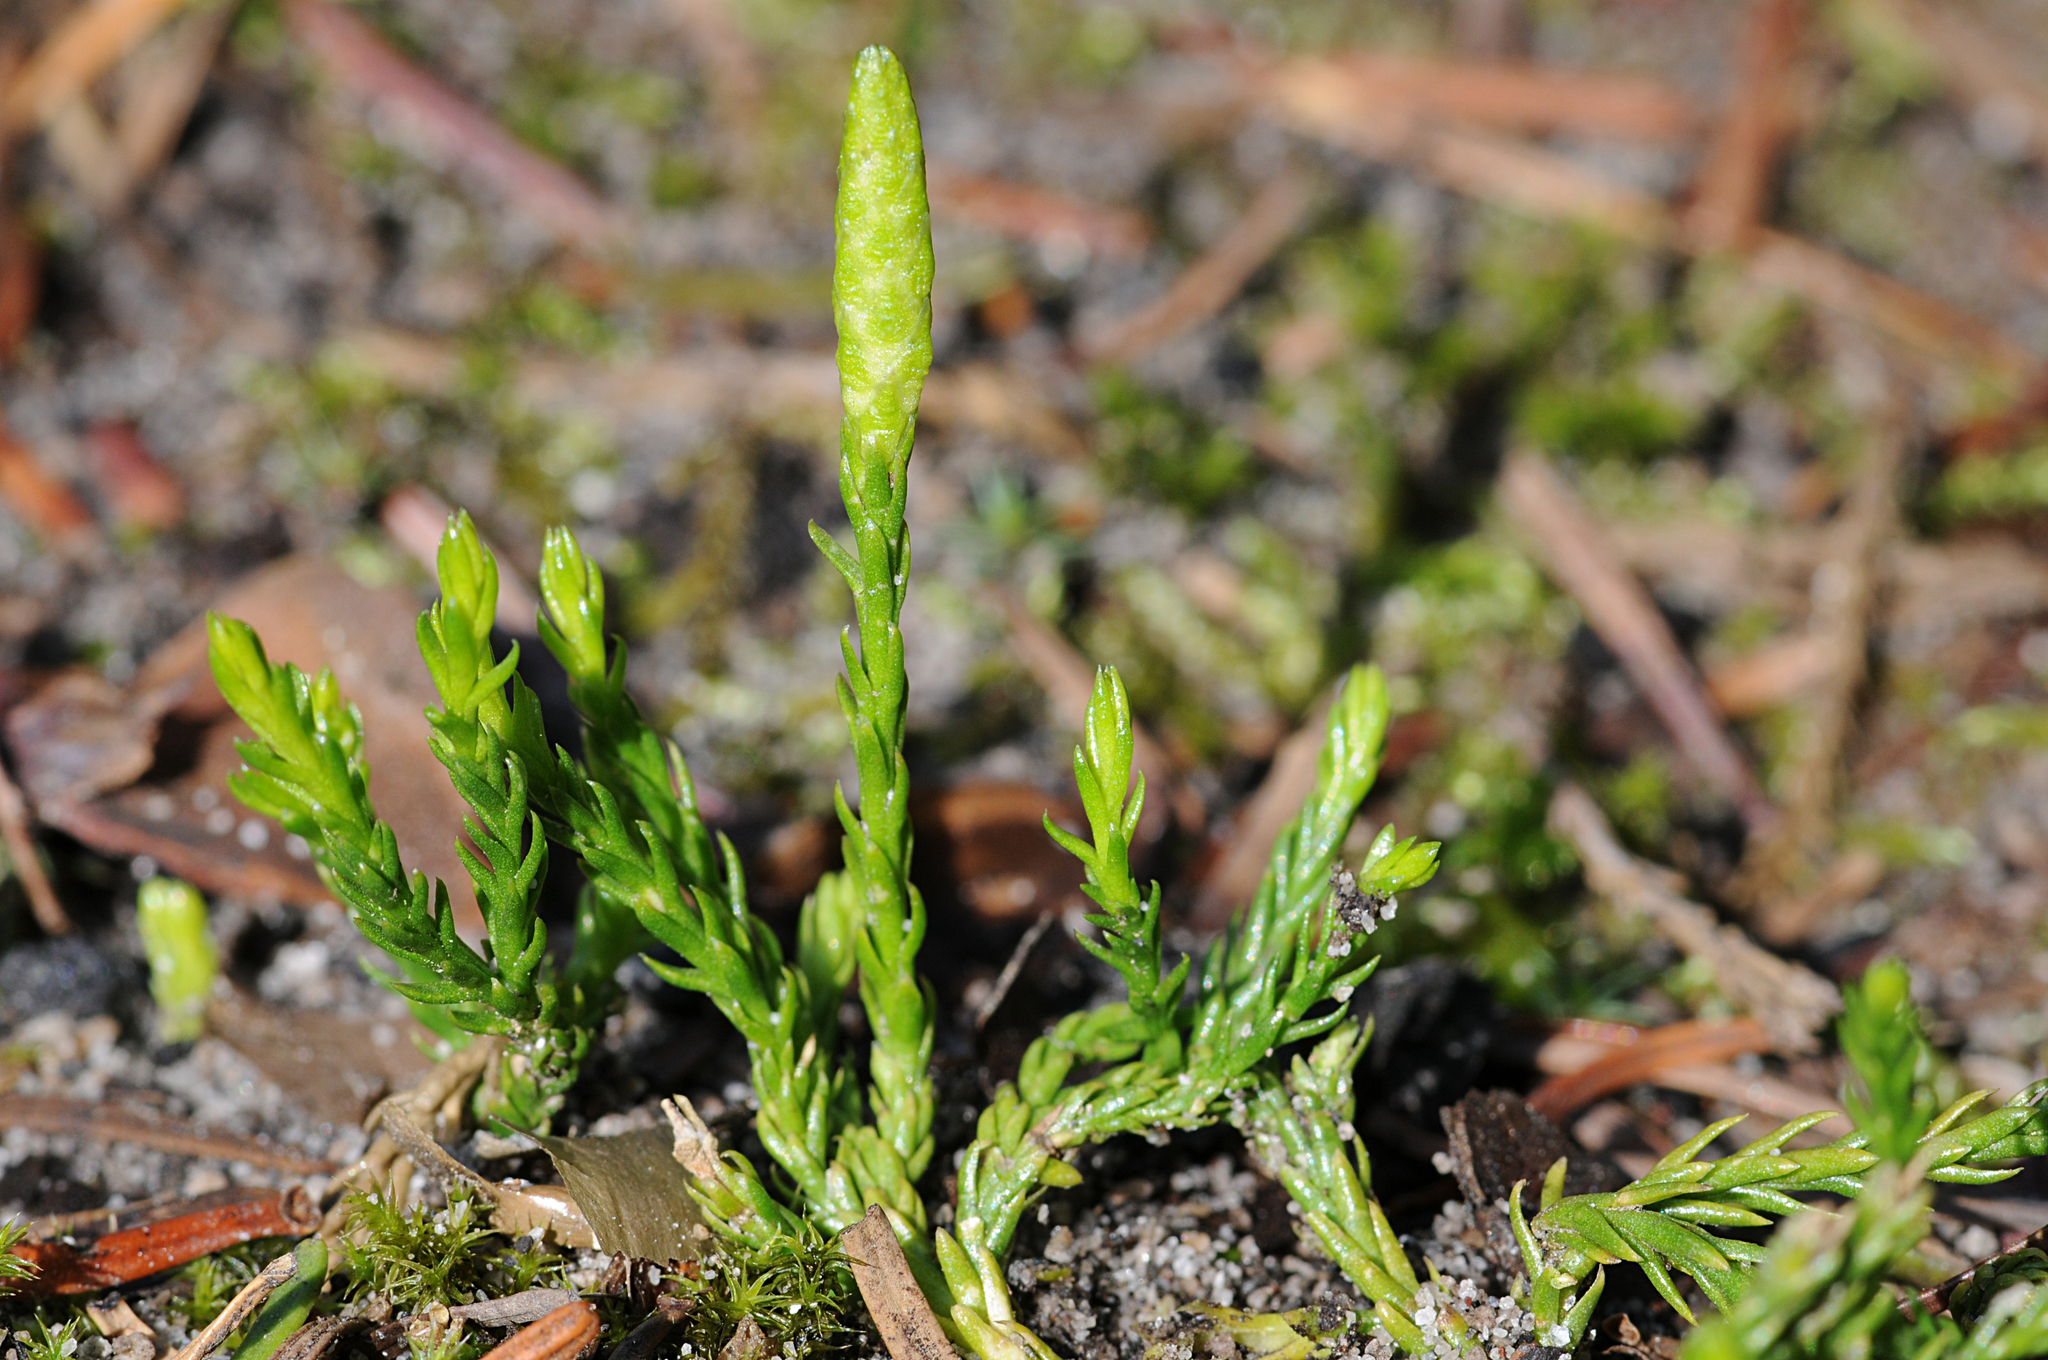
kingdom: Plantae
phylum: Tracheophyta
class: Lycopodiopsida
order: Lycopodiales
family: Lycopodiaceae
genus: Diphasiastrum
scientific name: Diphasiastrum sitchense
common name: Alaska clubmoss
